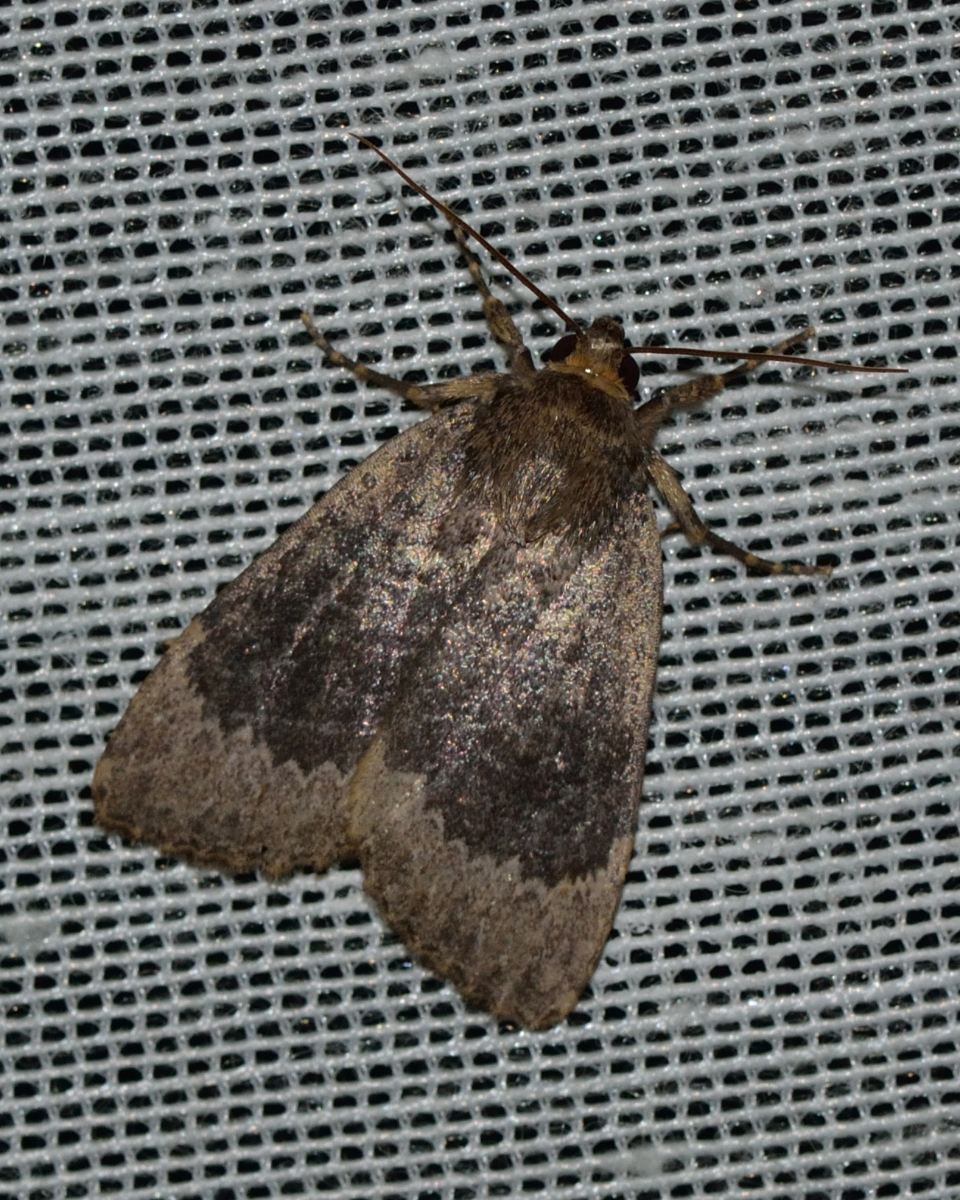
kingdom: Animalia
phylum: Arthropoda
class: Insecta
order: Lepidoptera
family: Noctuidae
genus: Amphipyra
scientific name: Amphipyra perflua
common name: Larger pale-tipped black moth
